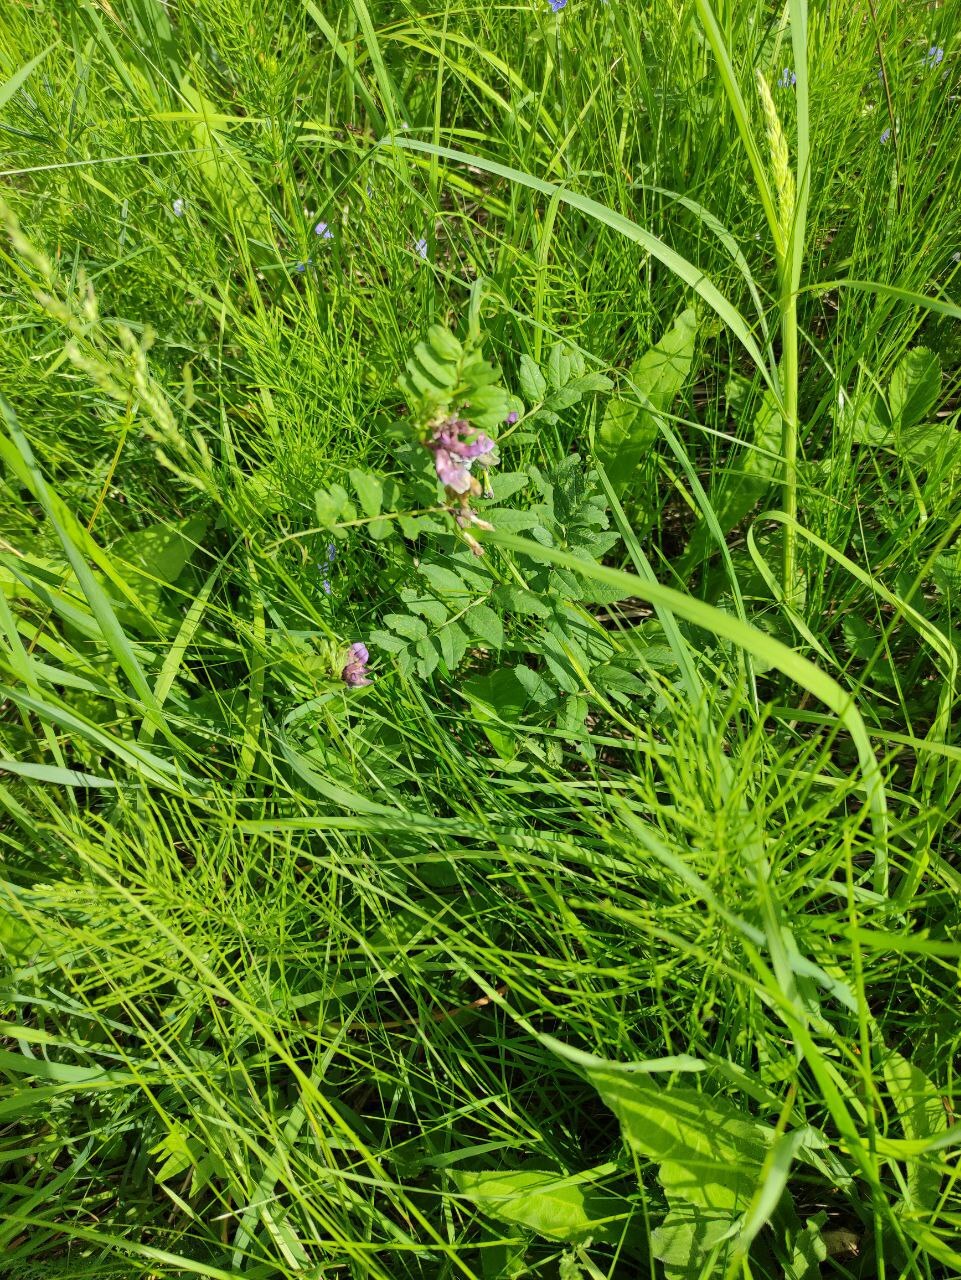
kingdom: Plantae
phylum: Tracheophyta
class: Magnoliopsida
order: Fabales
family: Fabaceae
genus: Vicia
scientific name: Vicia sepium
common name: Bush vetch
